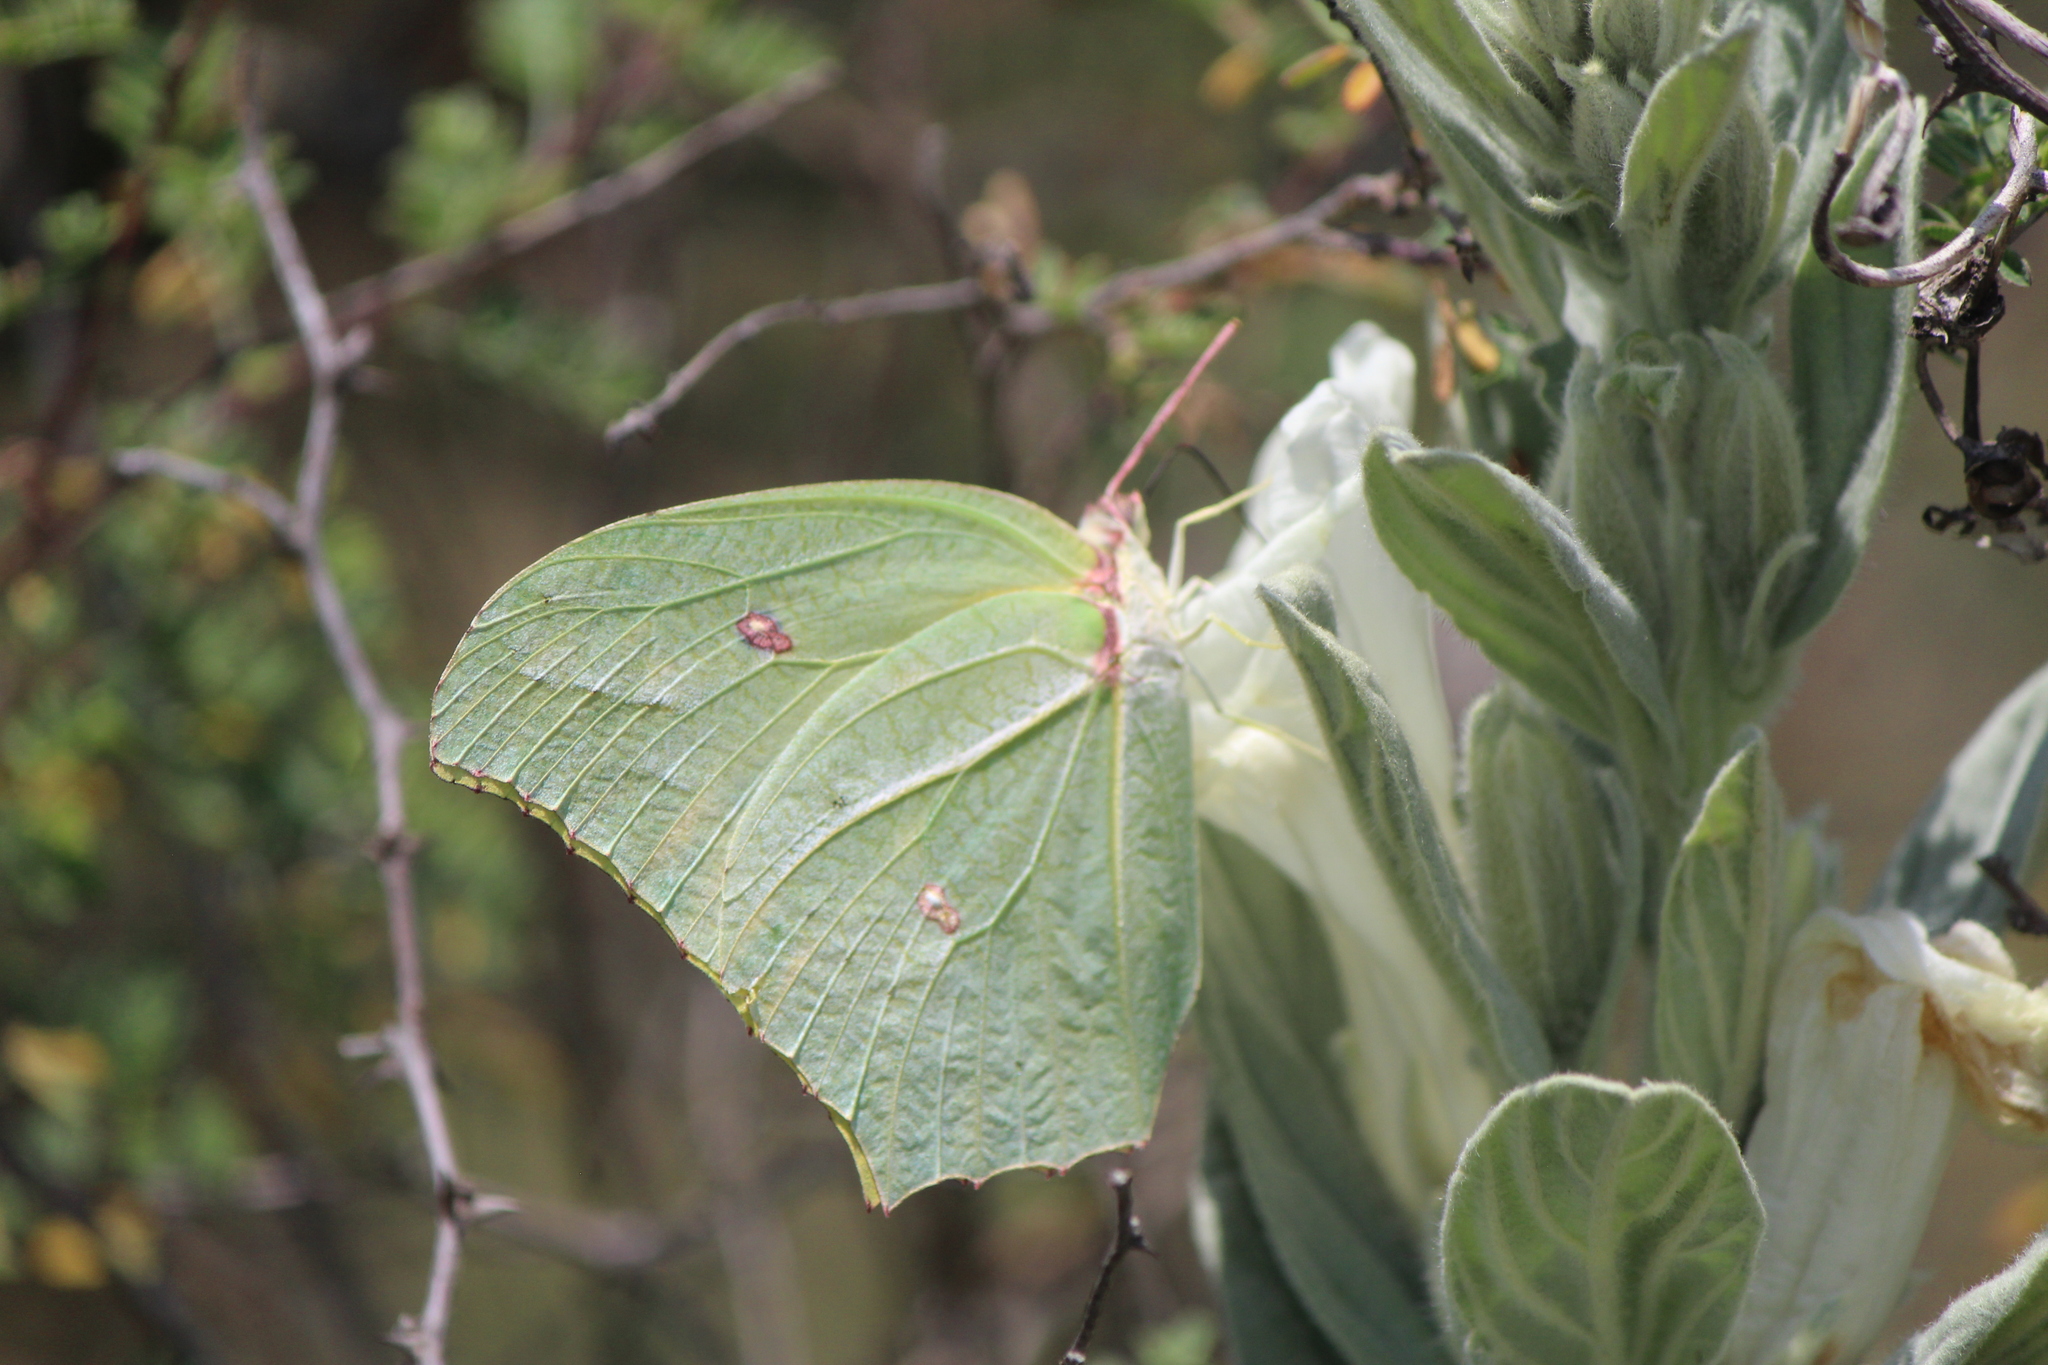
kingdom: Animalia
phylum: Arthropoda
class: Insecta
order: Lepidoptera
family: Pieridae
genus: Anteos
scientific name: Anteos maerula
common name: Angled sulphur
